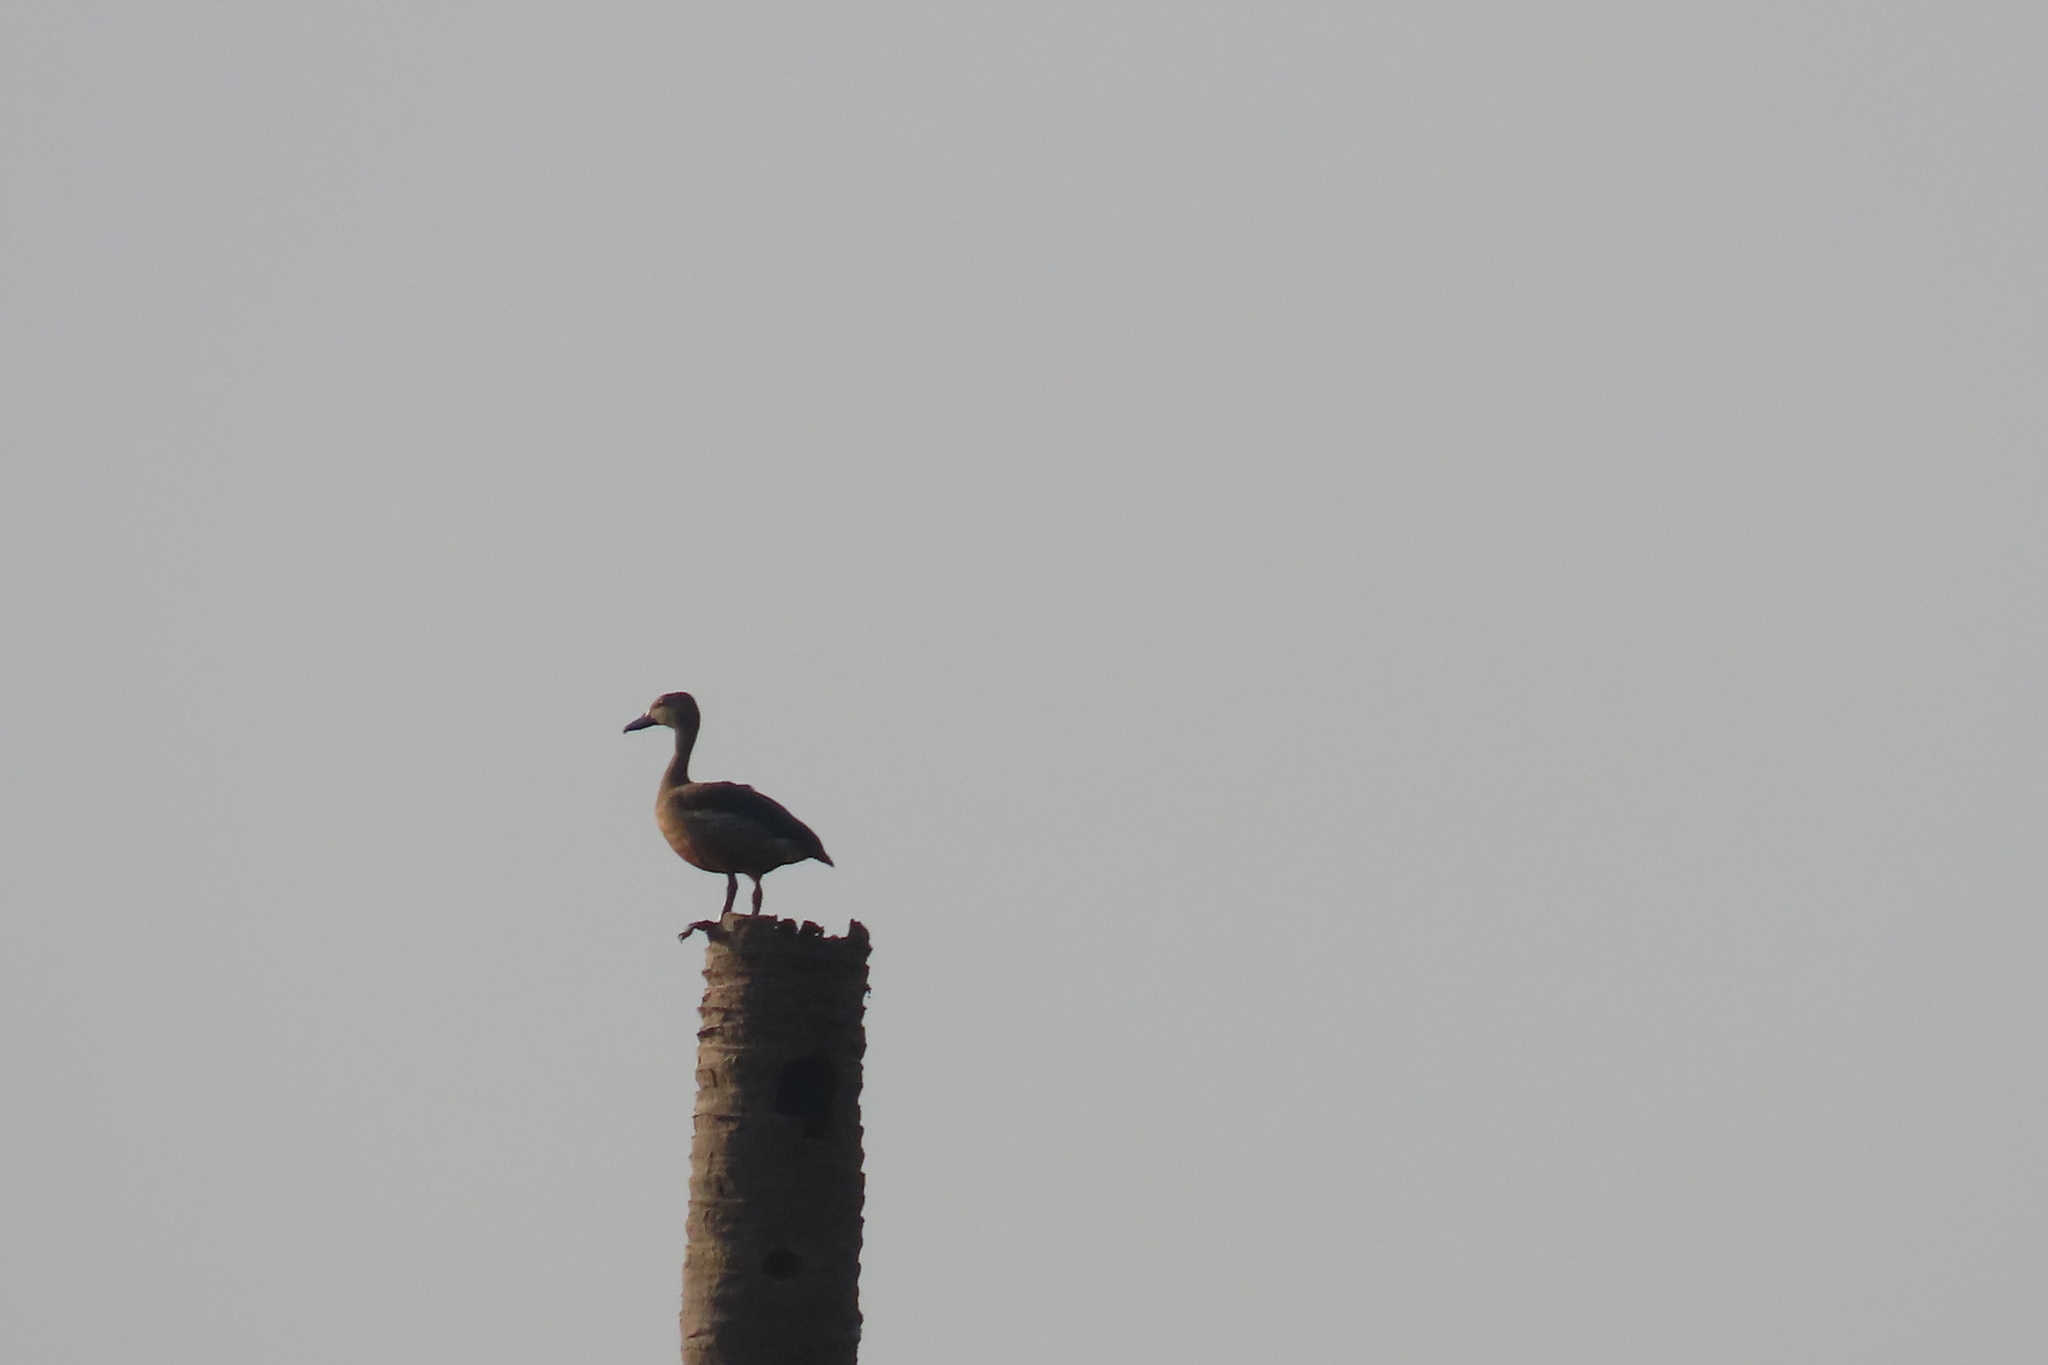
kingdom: Animalia
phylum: Chordata
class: Aves
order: Anseriformes
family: Anatidae
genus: Dendrocygna
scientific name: Dendrocygna javanica
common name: Lesser whistling-duck
